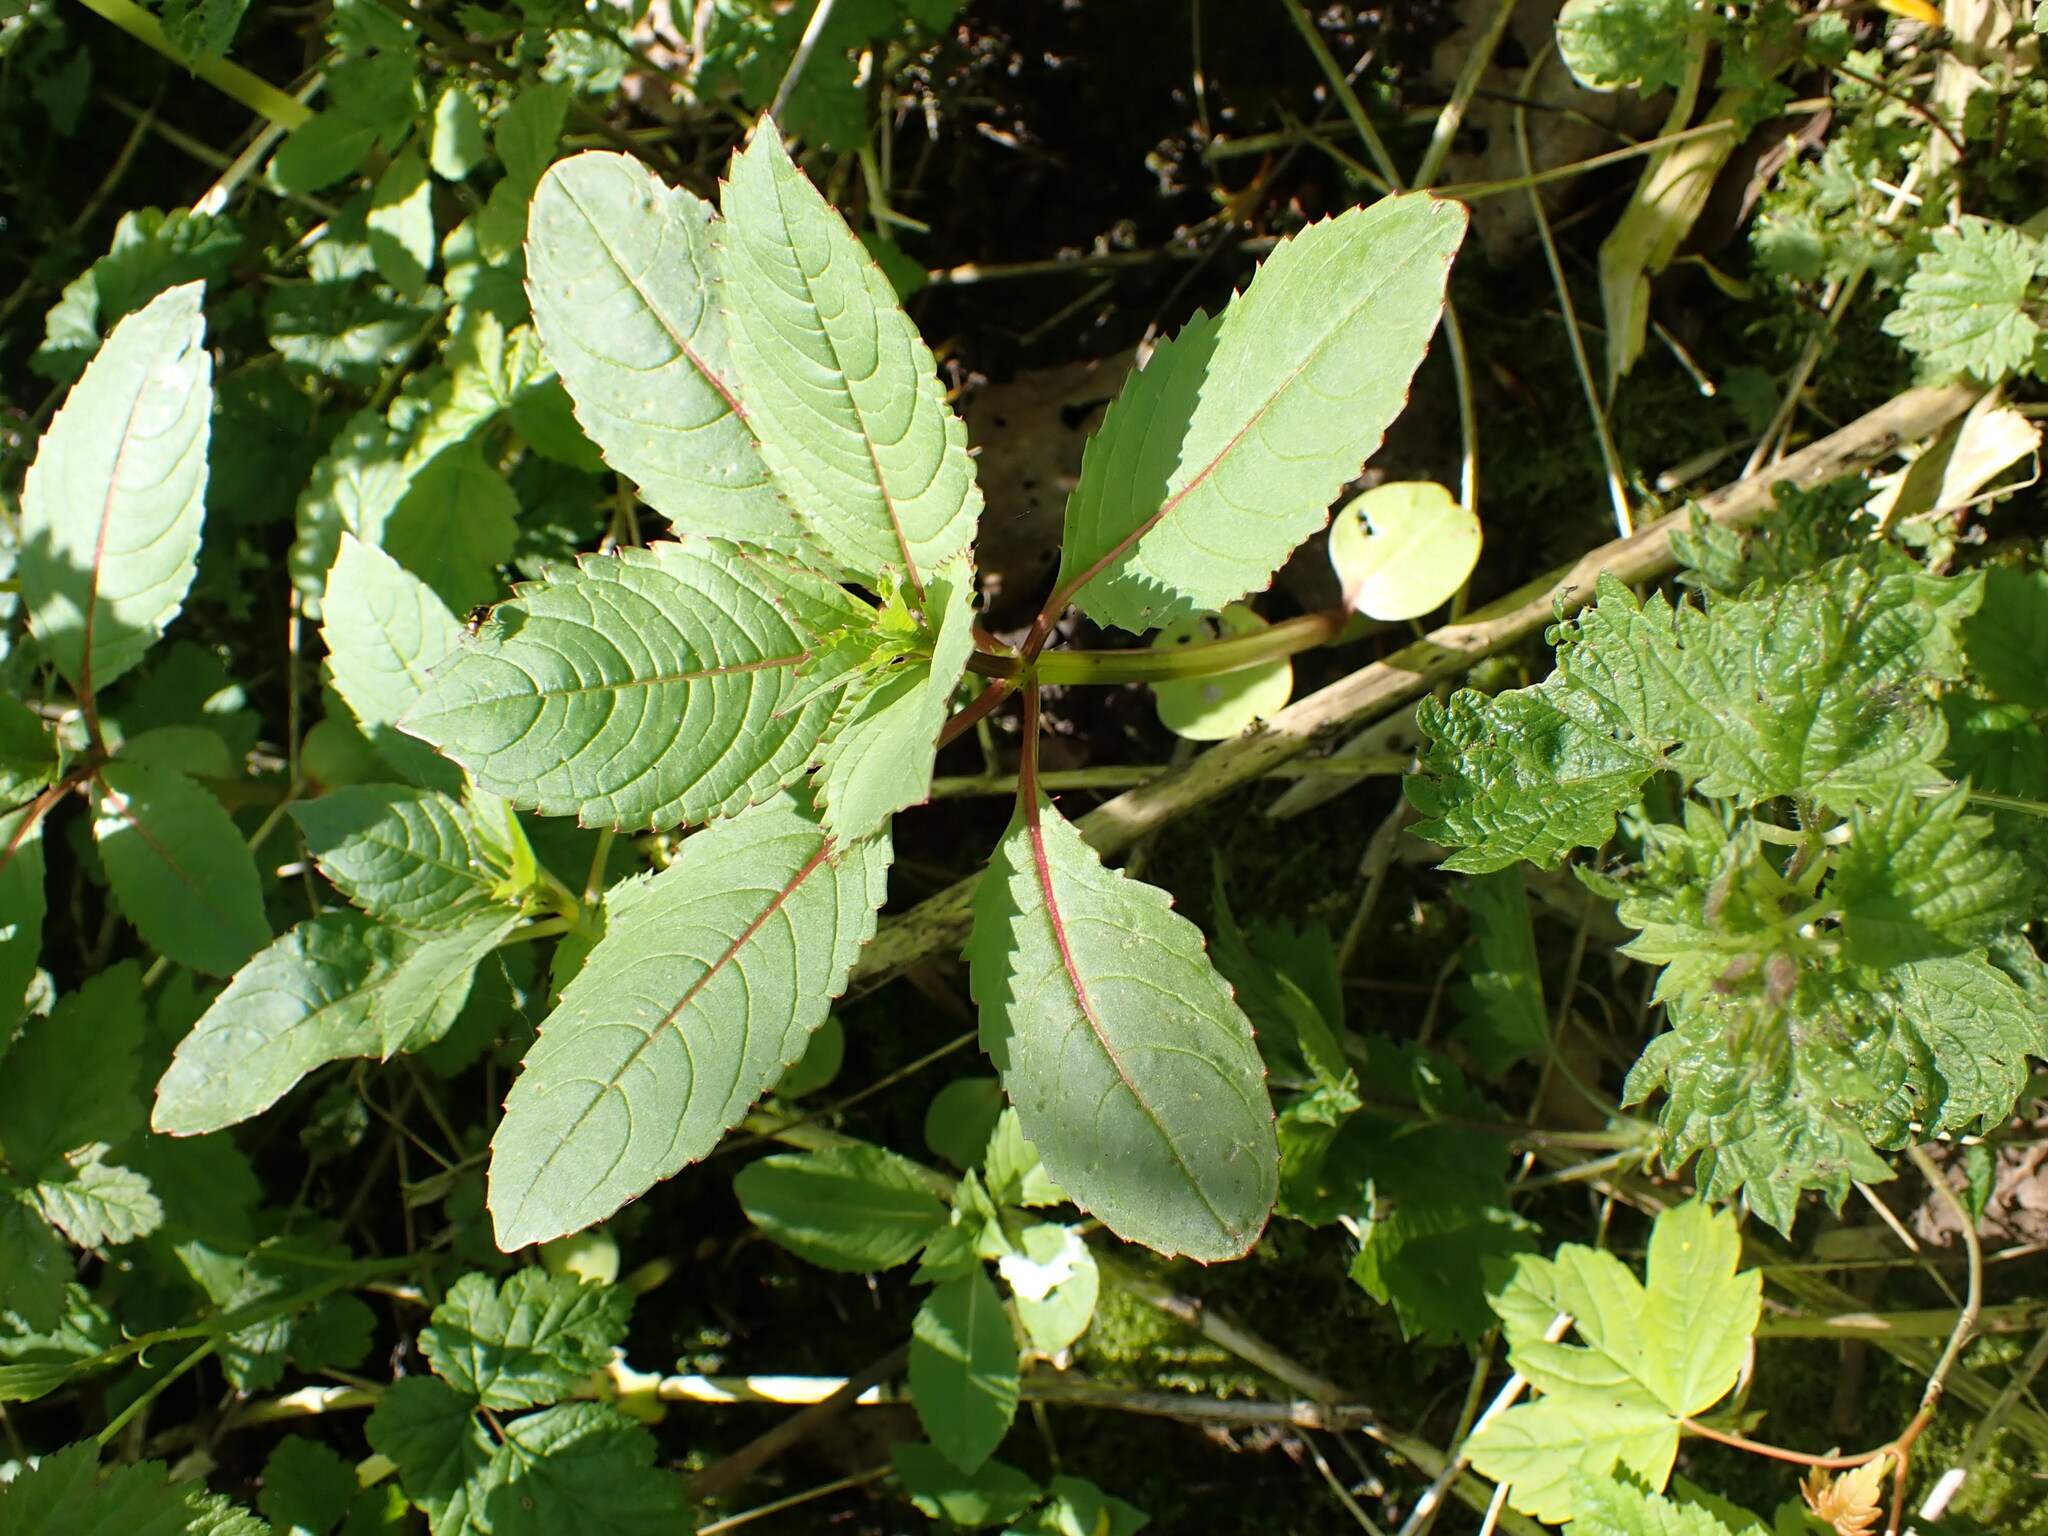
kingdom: Plantae
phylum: Tracheophyta
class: Magnoliopsida
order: Ericales
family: Balsaminaceae
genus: Impatiens
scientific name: Impatiens glandulifera
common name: Himalayan balsam
